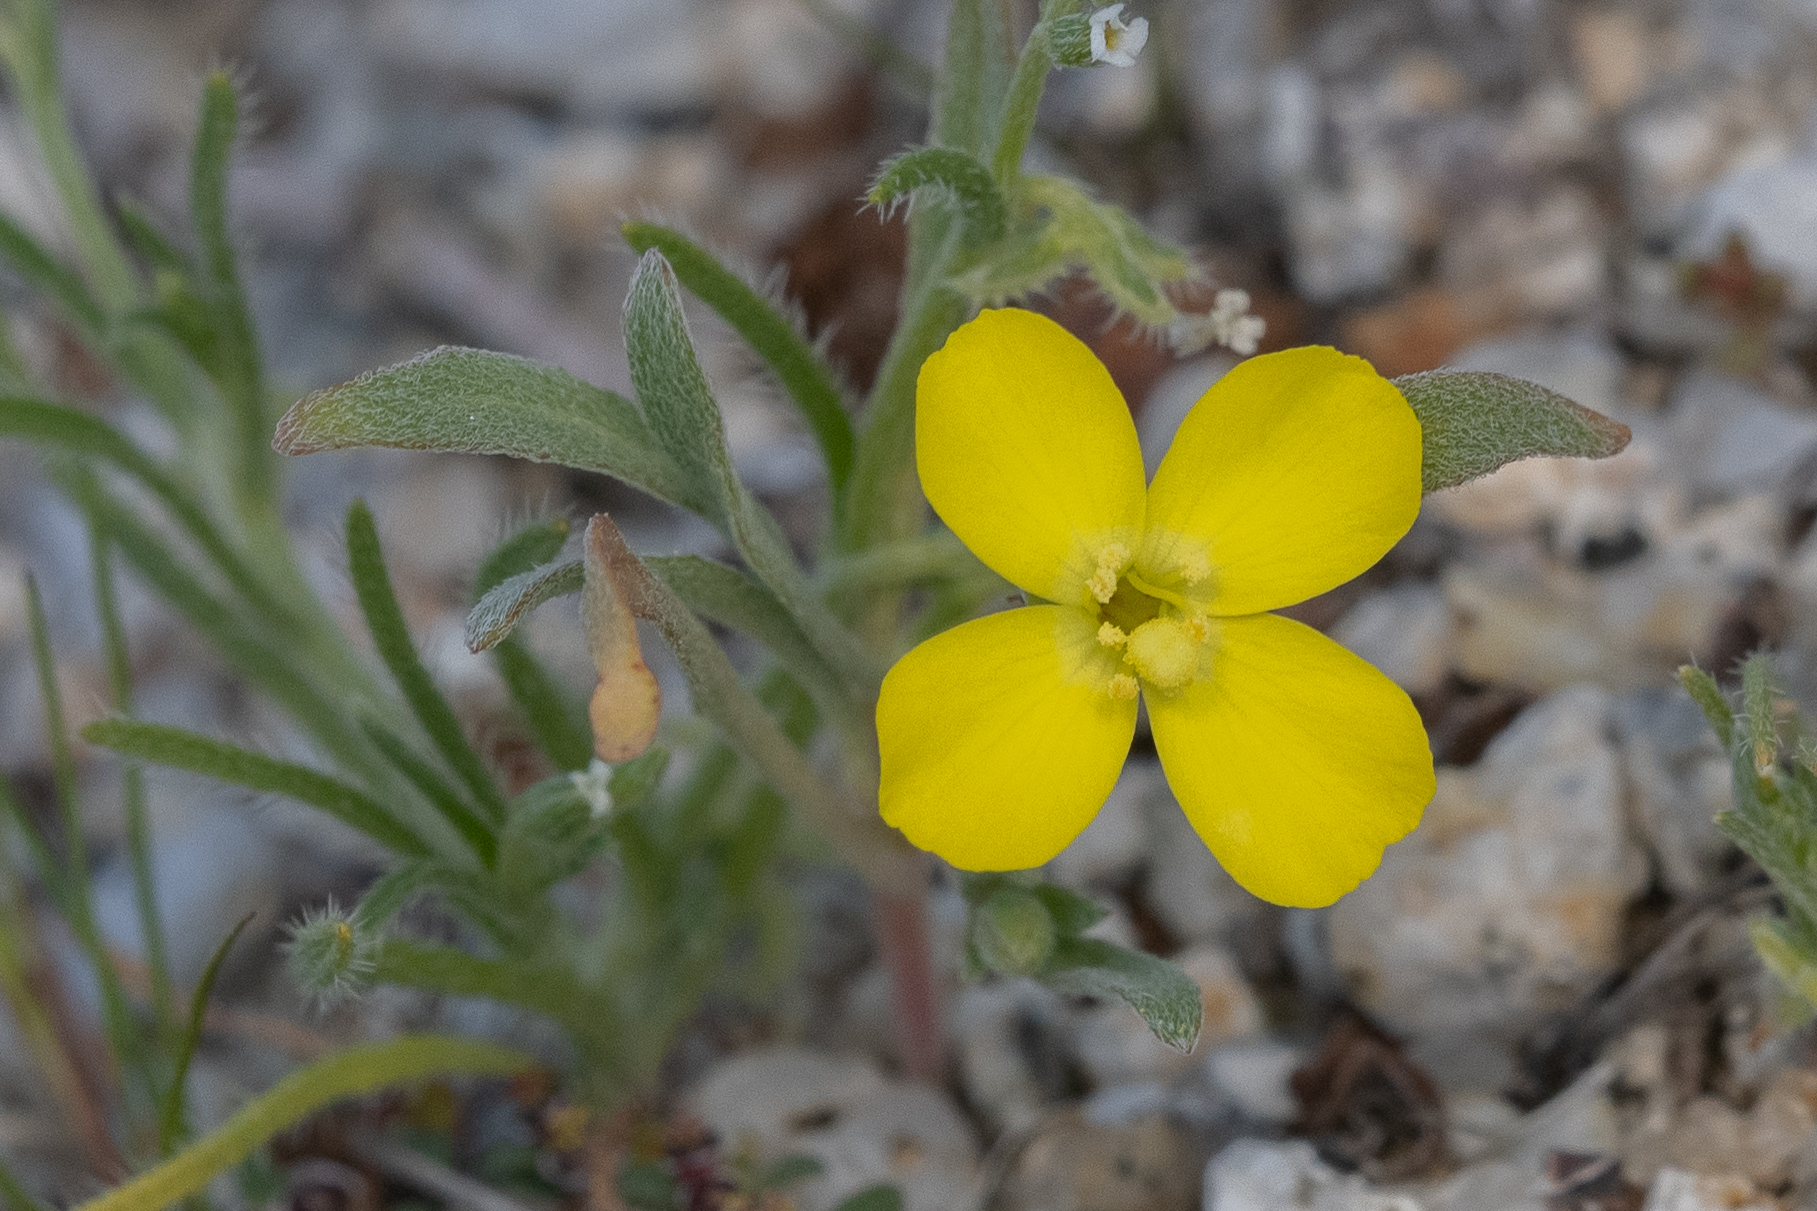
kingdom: Plantae
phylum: Tracheophyta
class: Magnoliopsida
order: Myrtales
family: Onagraceae
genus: Camissoniopsis
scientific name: Camissoniopsis pallida
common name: Paleyellow suncup
